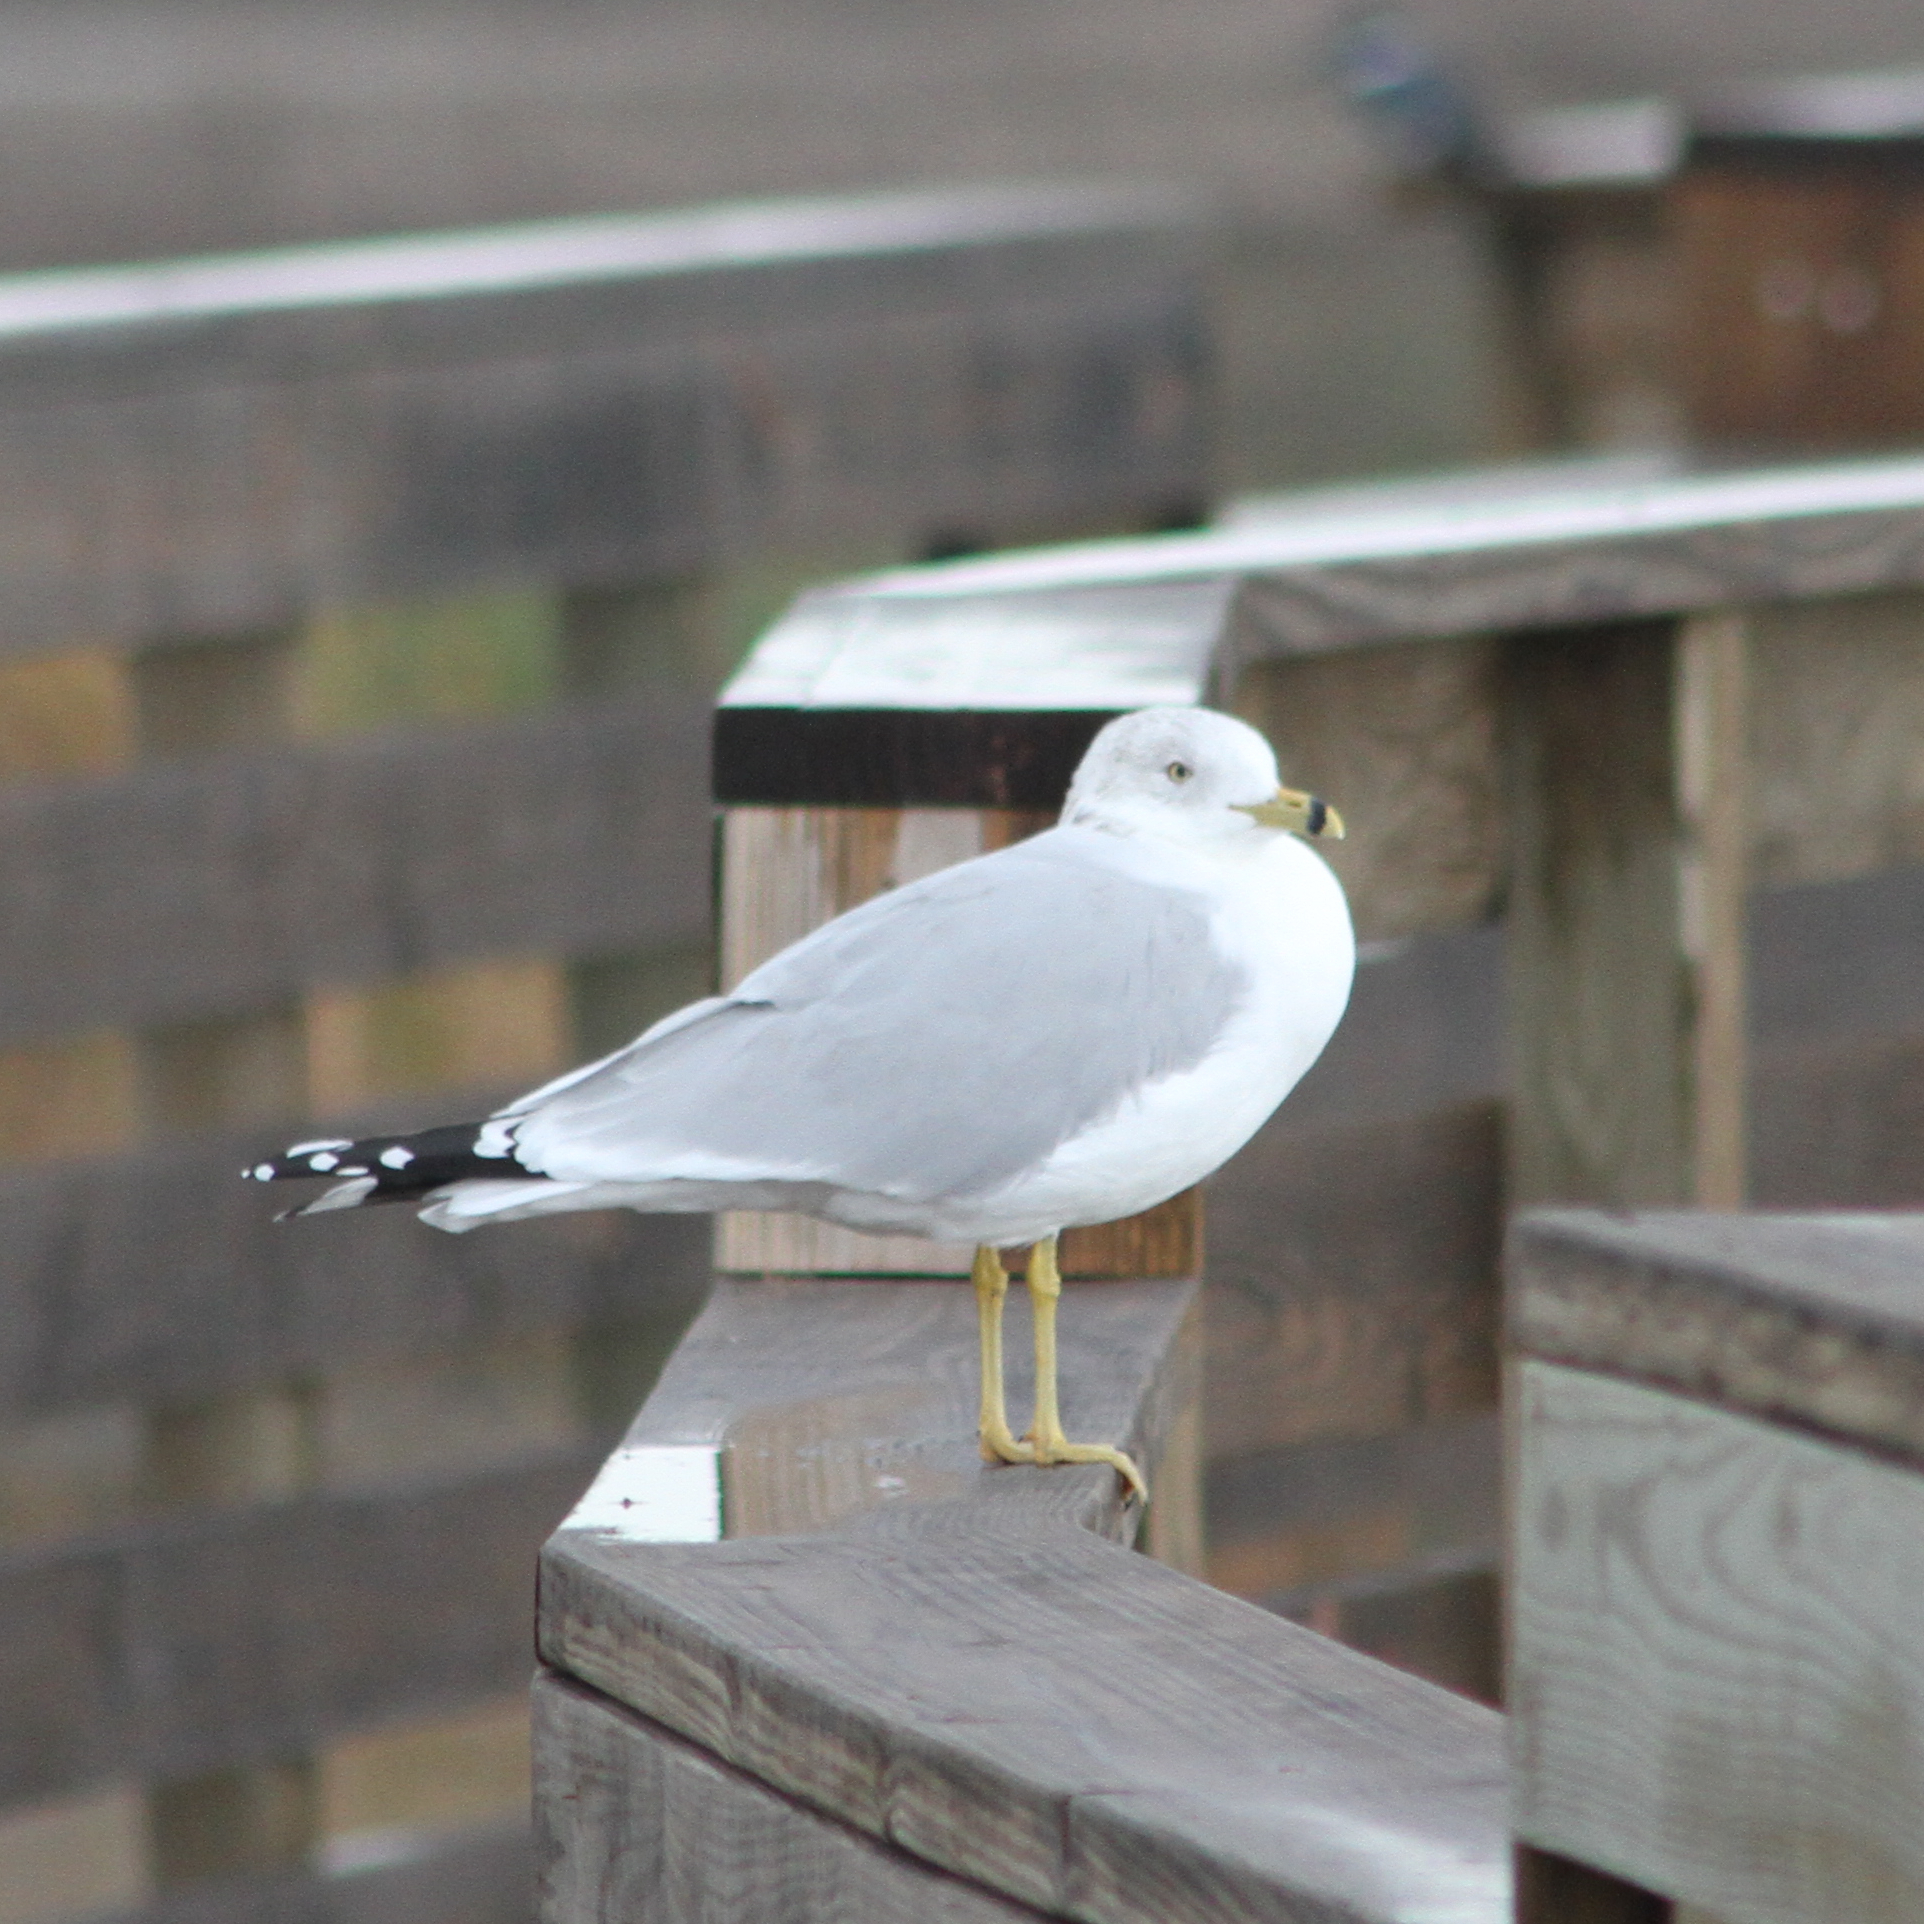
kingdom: Animalia
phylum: Chordata
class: Aves
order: Charadriiformes
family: Laridae
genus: Larus
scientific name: Larus delawarensis
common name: Ring-billed gull
